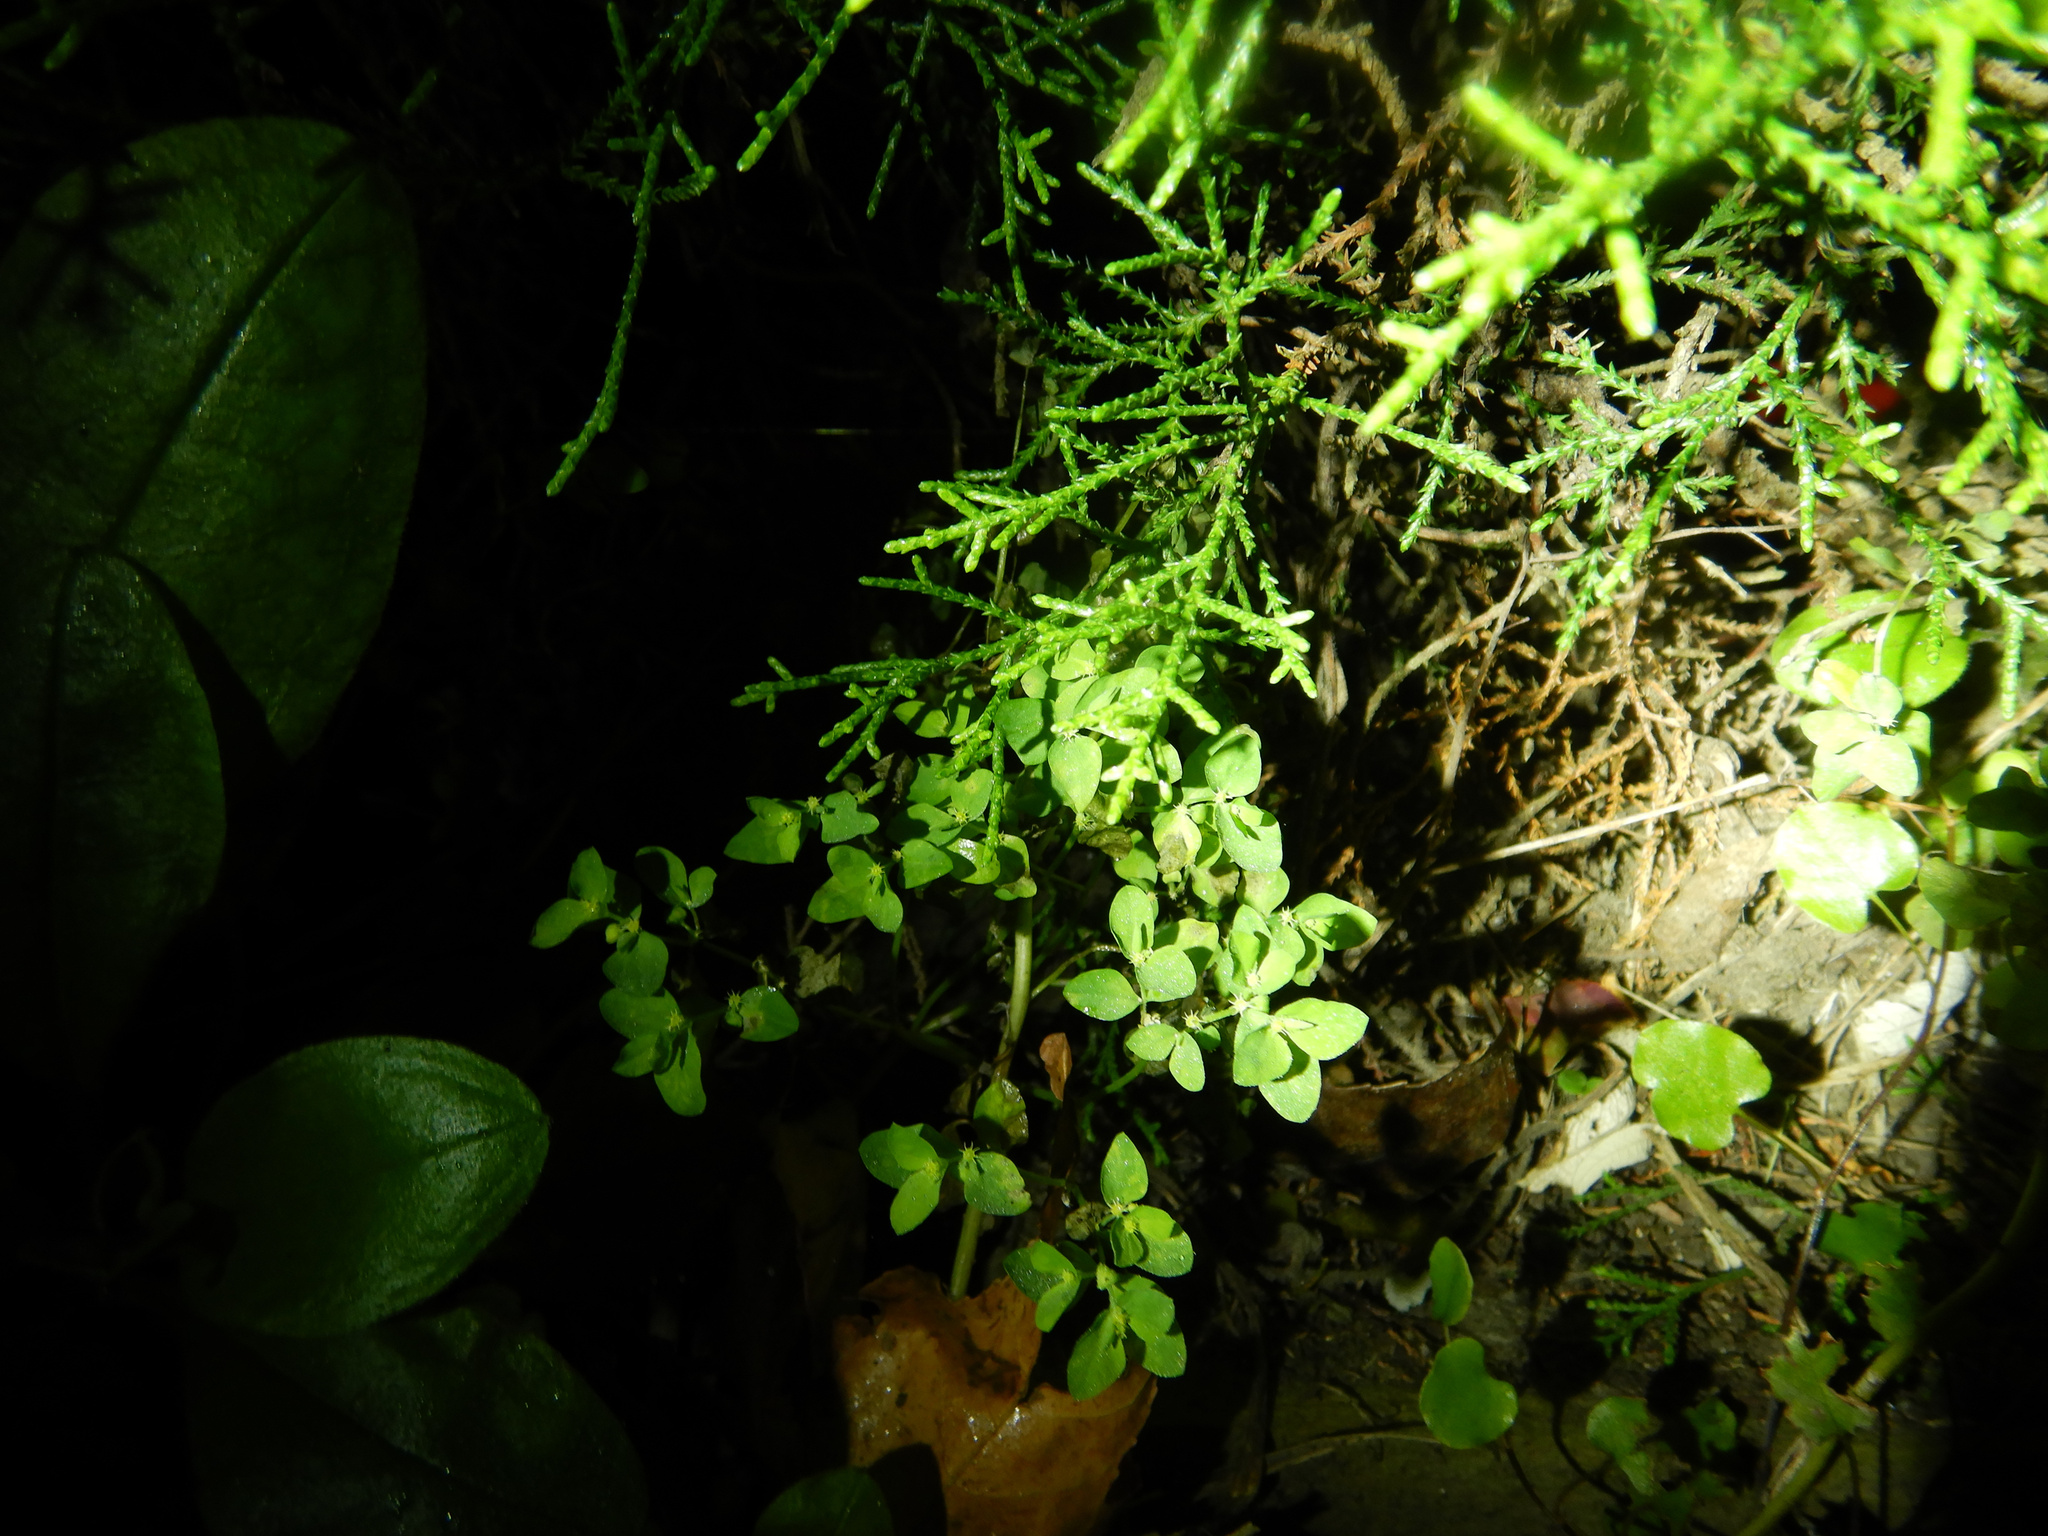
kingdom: Plantae
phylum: Tracheophyta
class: Magnoliopsida
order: Malpighiales
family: Euphorbiaceae
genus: Euphorbia
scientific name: Euphorbia peplus
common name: Petty spurge
